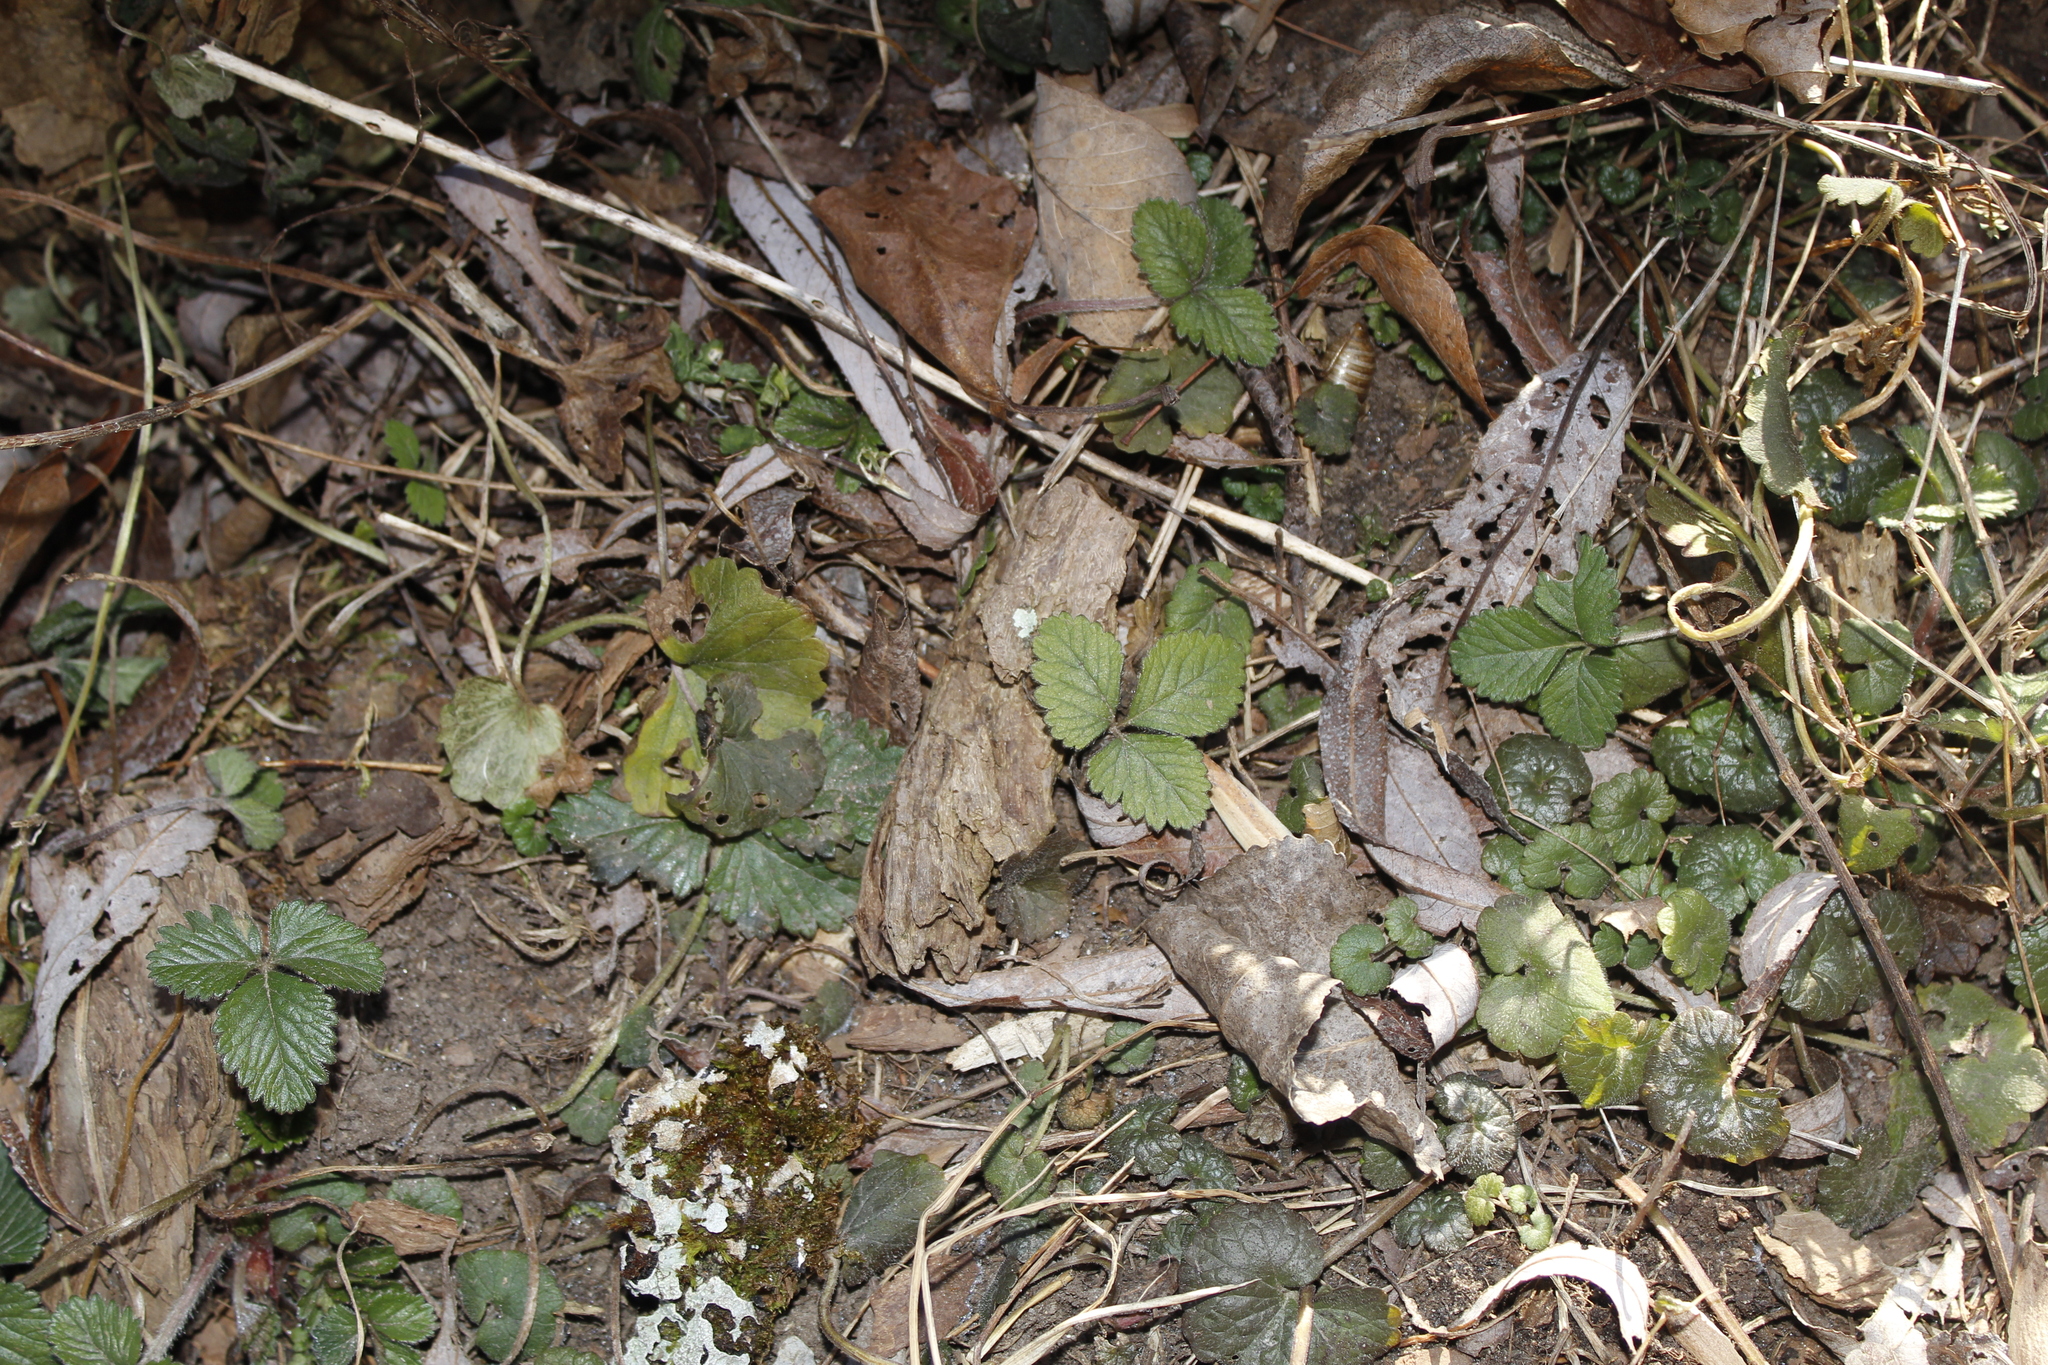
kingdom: Plantae
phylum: Tracheophyta
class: Magnoliopsida
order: Rosales
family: Rosaceae
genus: Potentilla
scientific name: Potentilla indica
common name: Yellow-flowered strawberry
